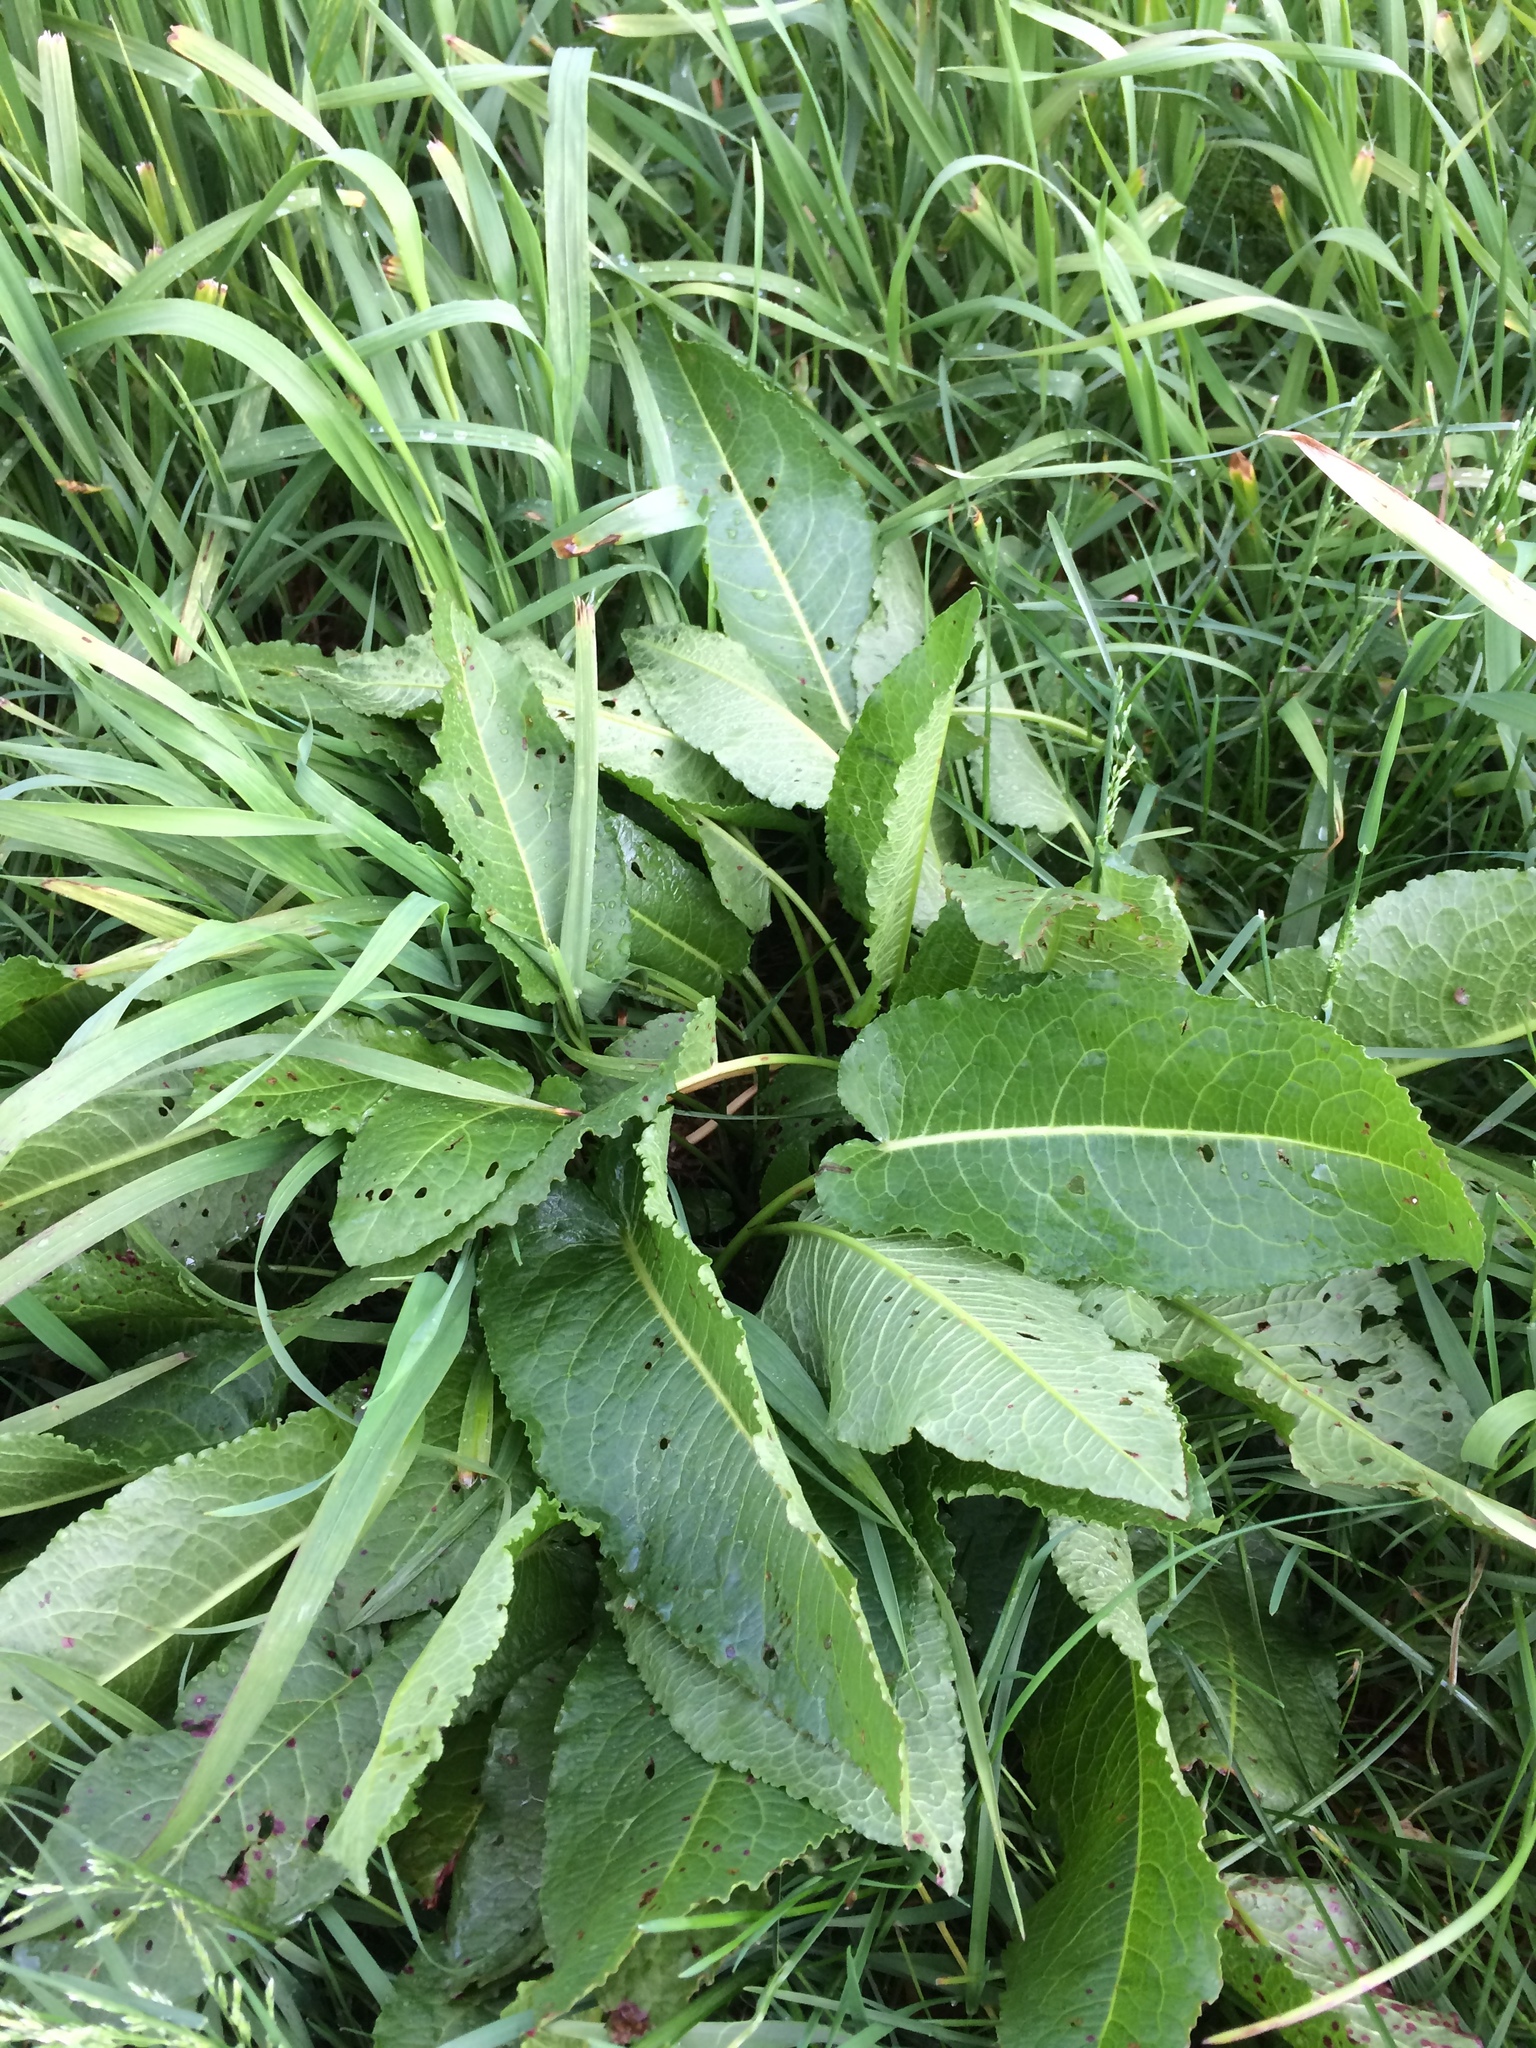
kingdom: Plantae
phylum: Tracheophyta
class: Magnoliopsida
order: Caryophyllales
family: Polygonaceae
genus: Rumex
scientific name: Rumex obtusifolius
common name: Bitter dock
